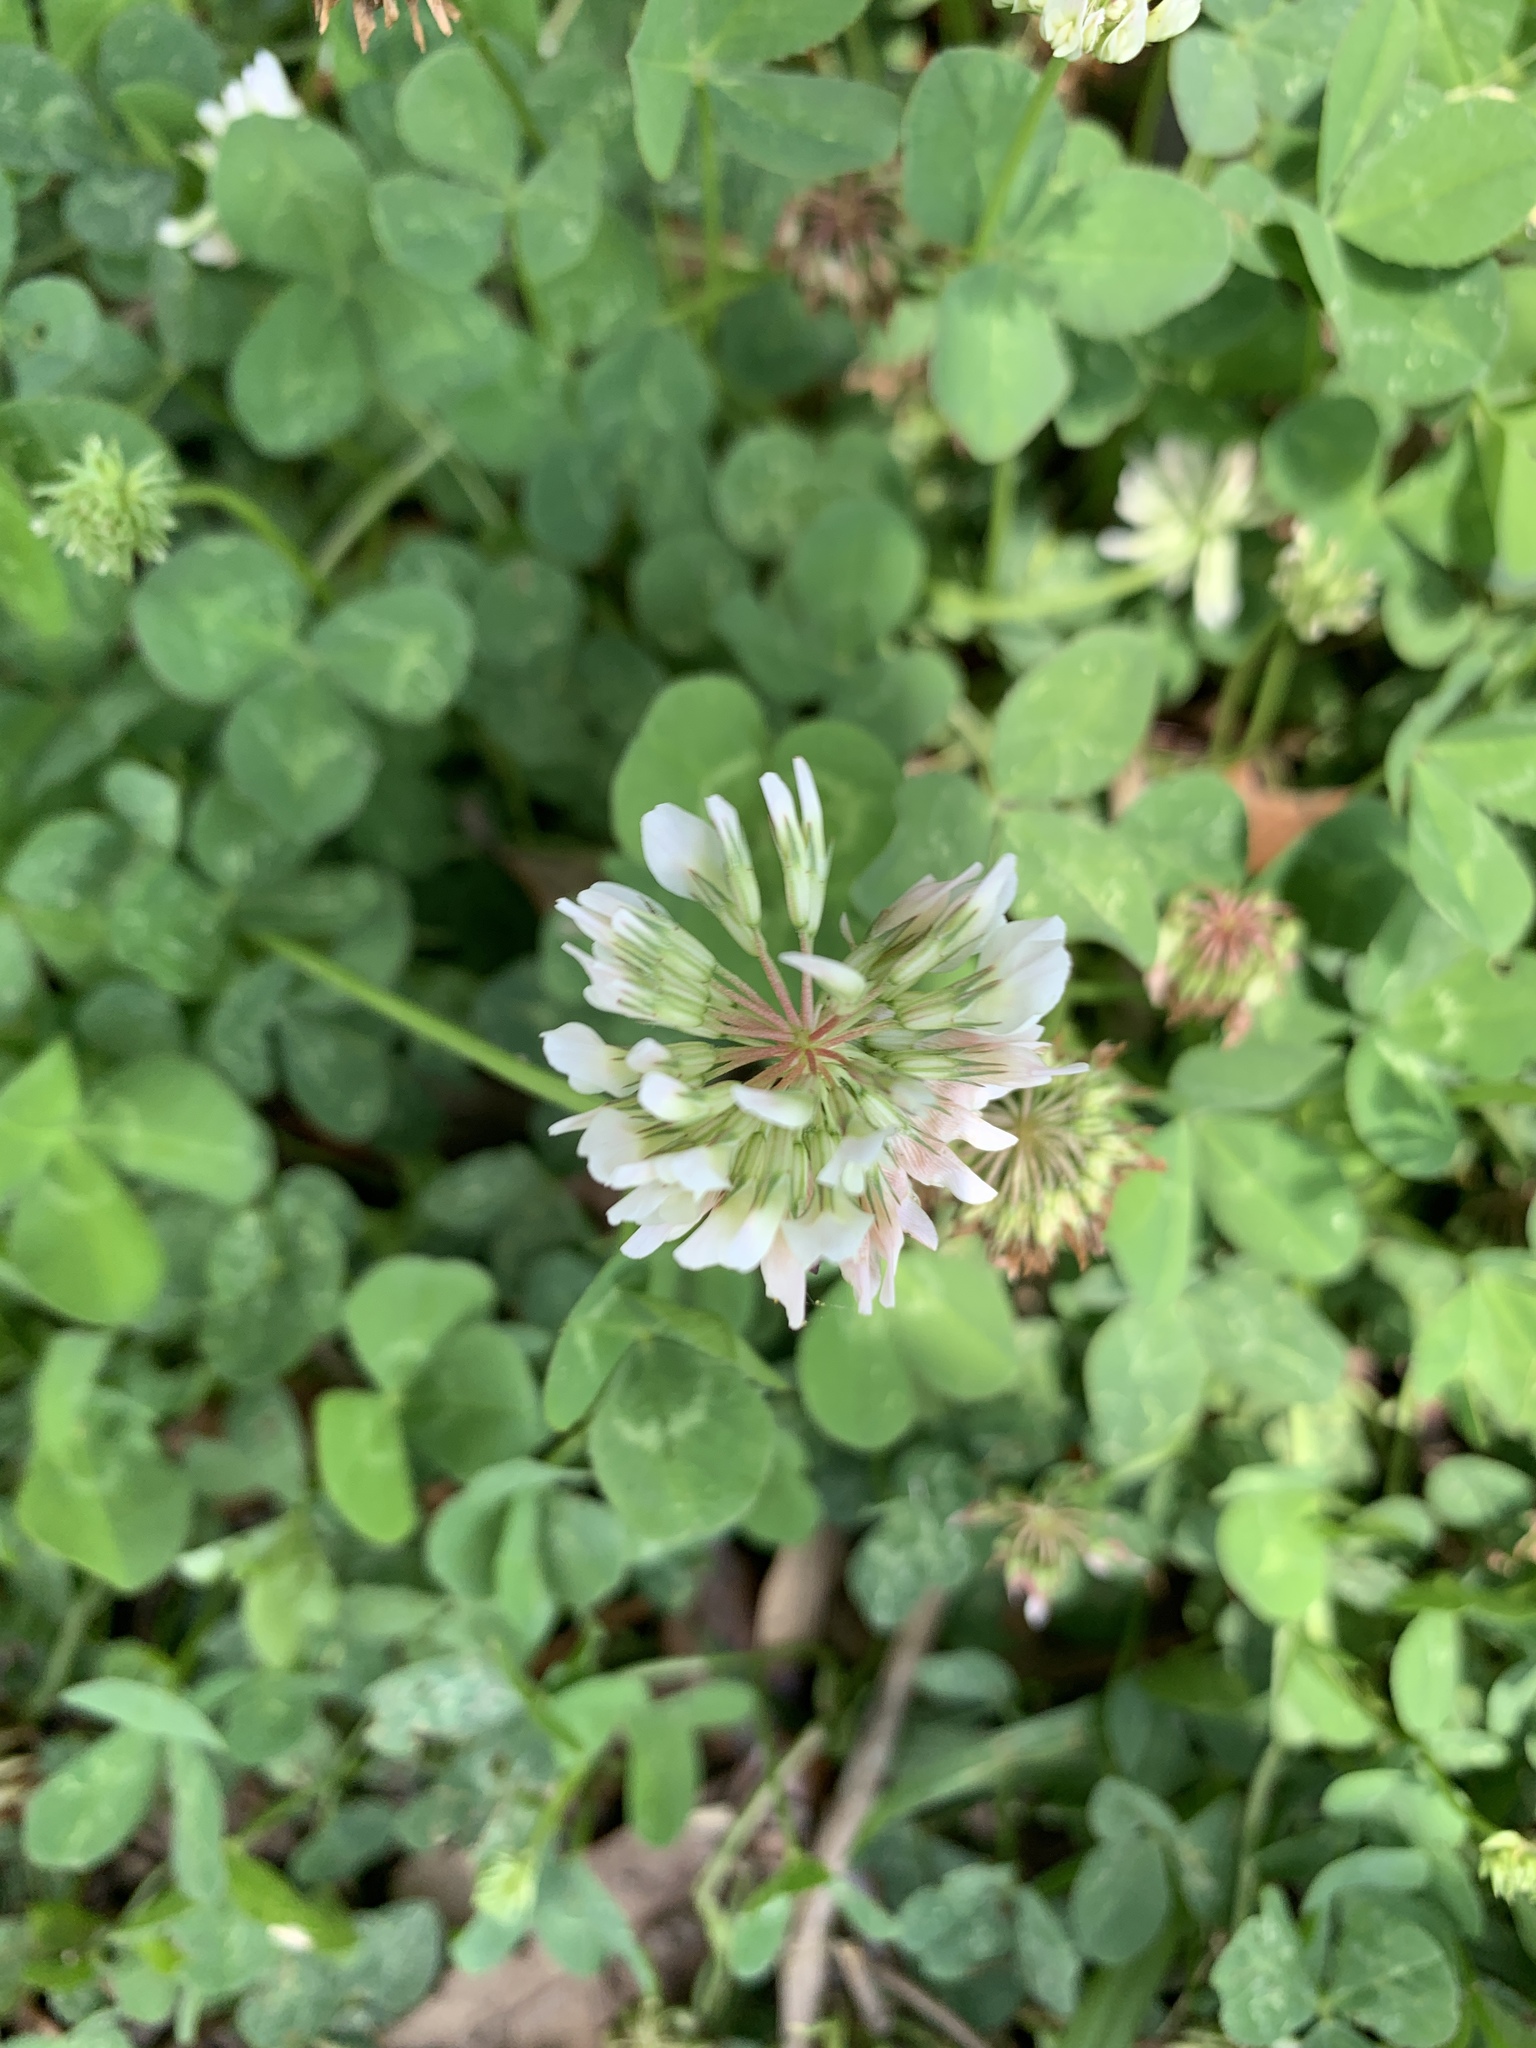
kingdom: Plantae
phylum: Tracheophyta
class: Magnoliopsida
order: Fabales
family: Fabaceae
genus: Trifolium
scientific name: Trifolium repens
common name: White clover
